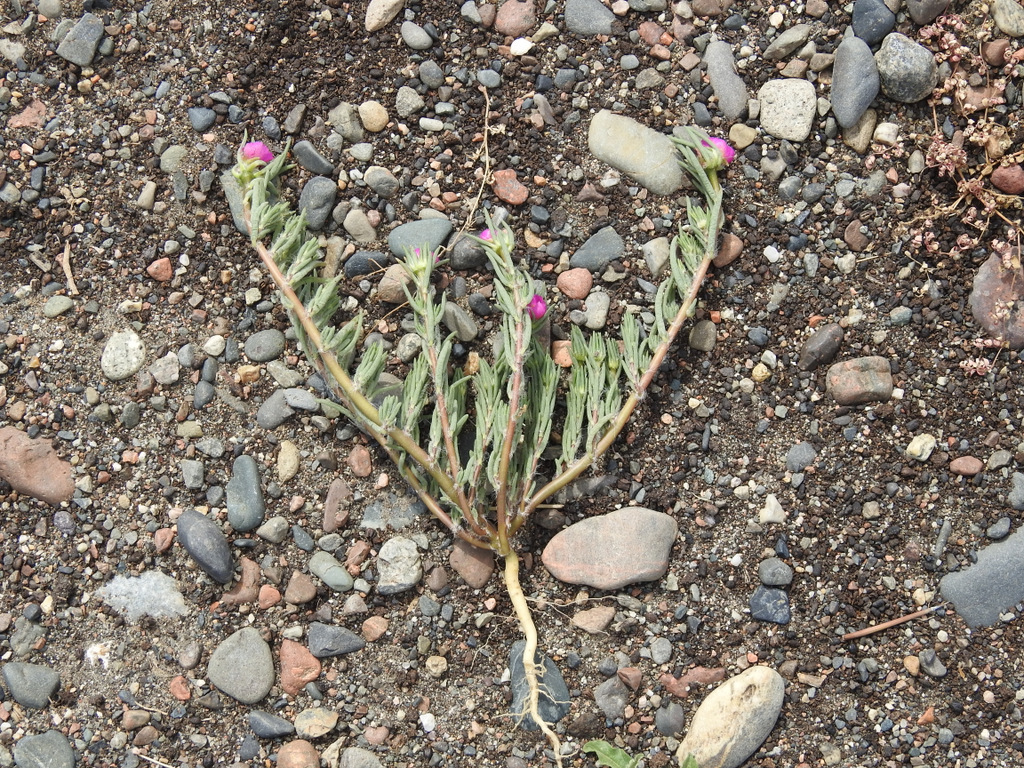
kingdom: Plantae
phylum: Tracheophyta
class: Magnoliopsida
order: Caryophyllales
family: Portulacaceae
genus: Portulaca
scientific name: Portulaca pilosa
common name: Kiss me quick
